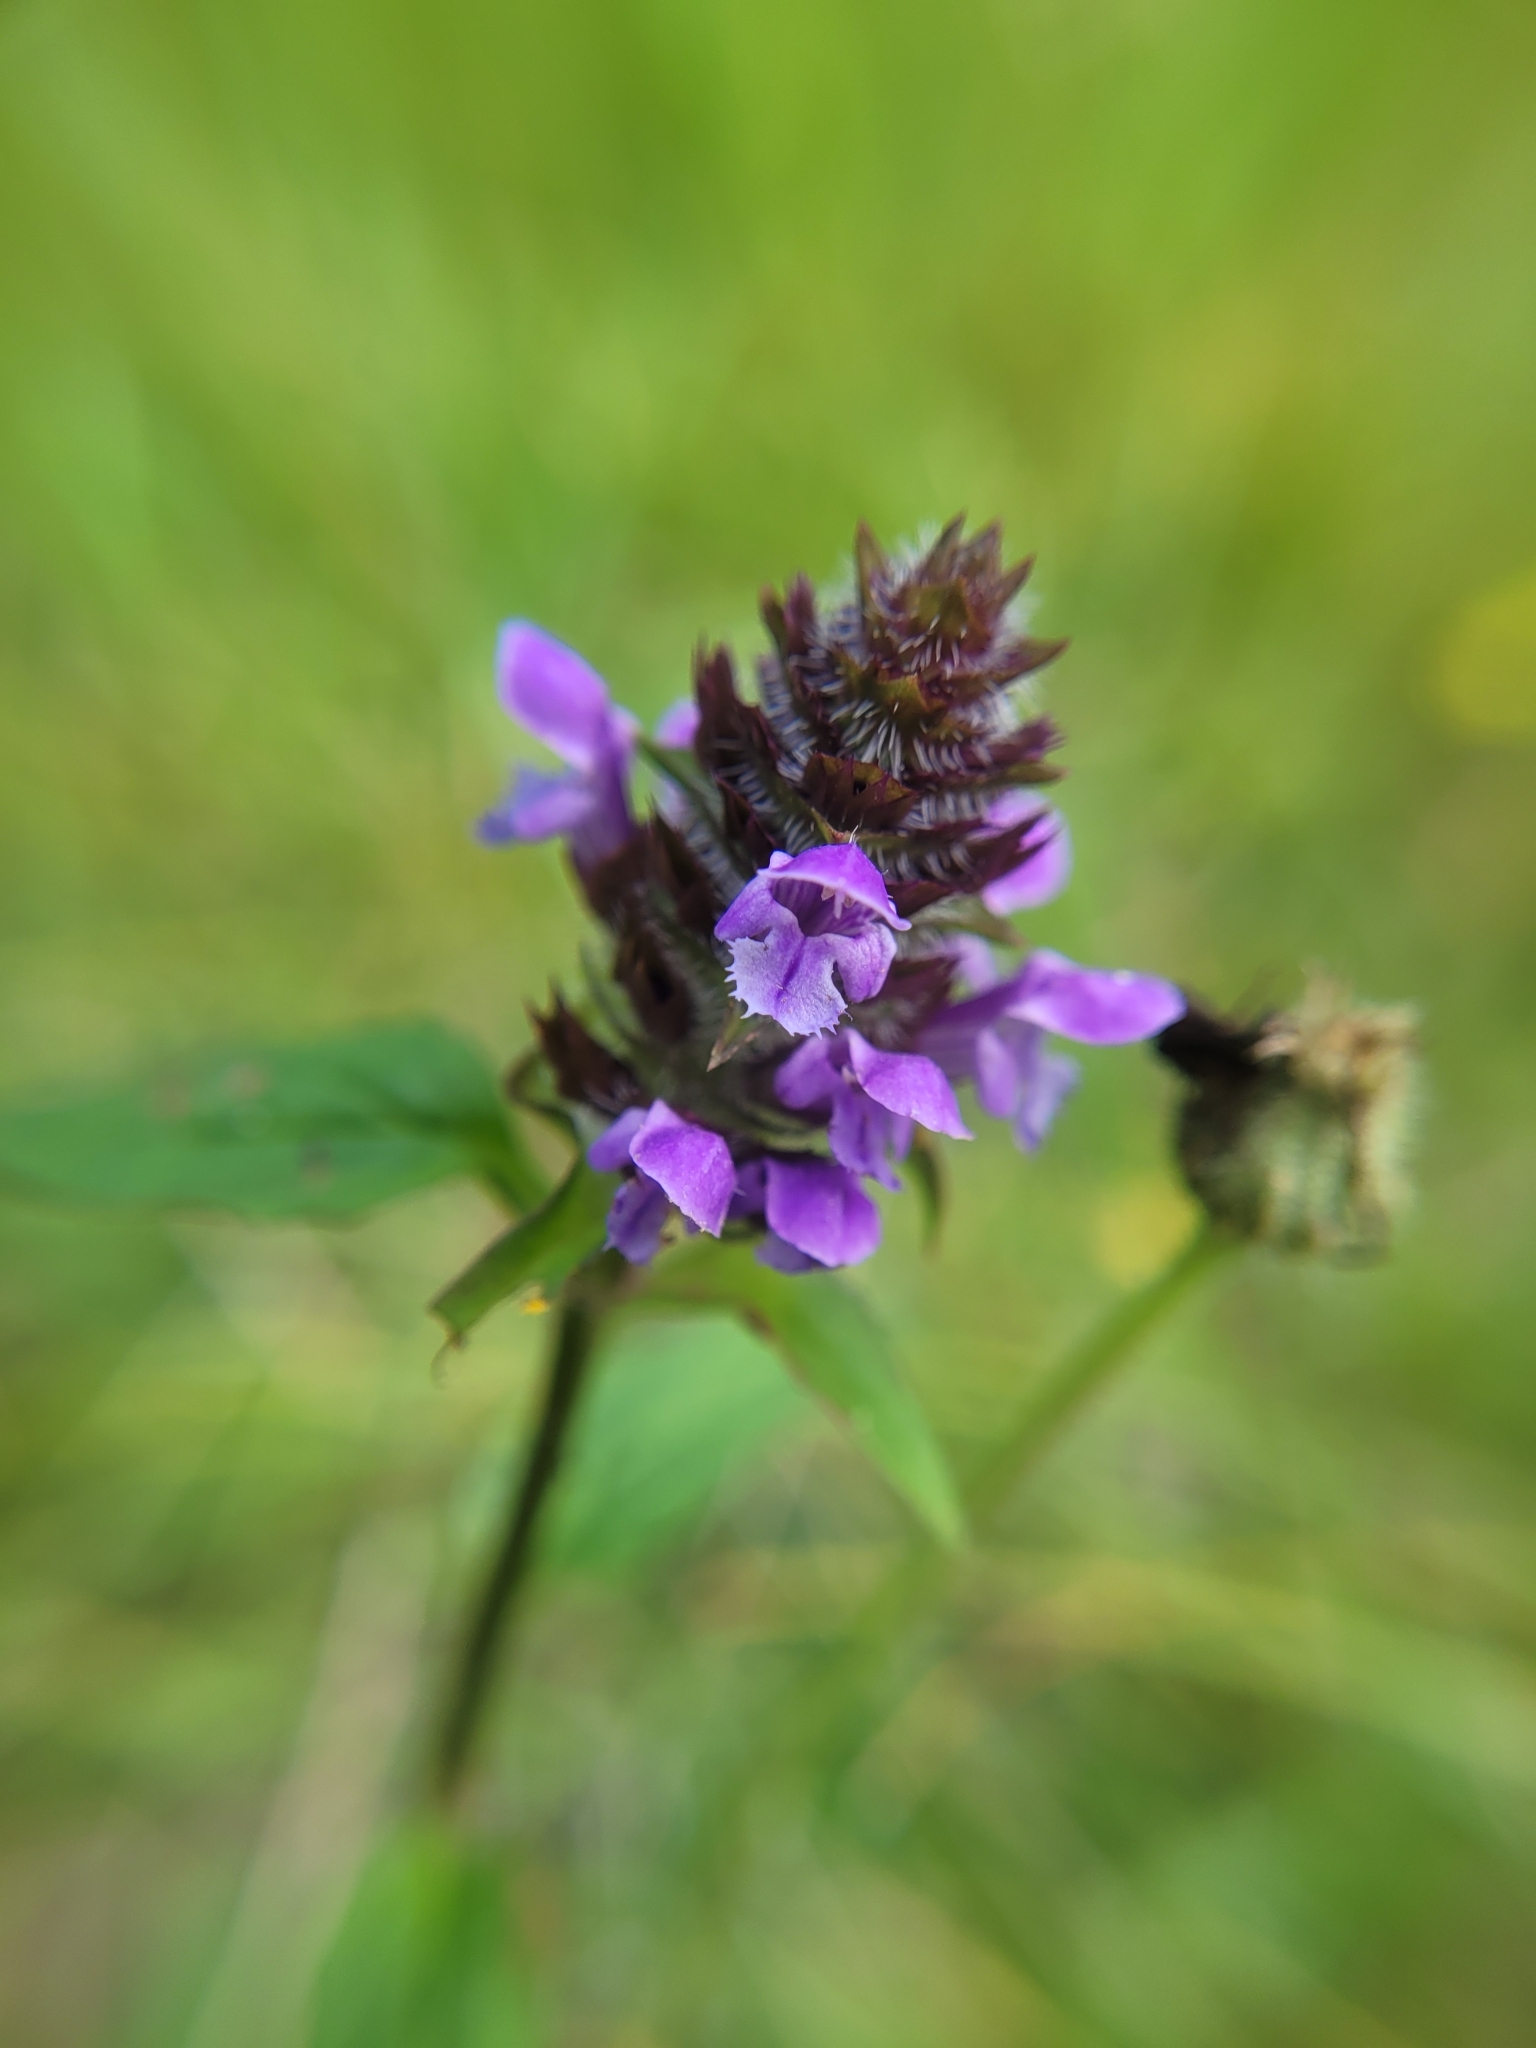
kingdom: Plantae
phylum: Tracheophyta
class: Magnoliopsida
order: Lamiales
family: Lamiaceae
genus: Prunella
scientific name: Prunella vulgaris
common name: Heal-all
